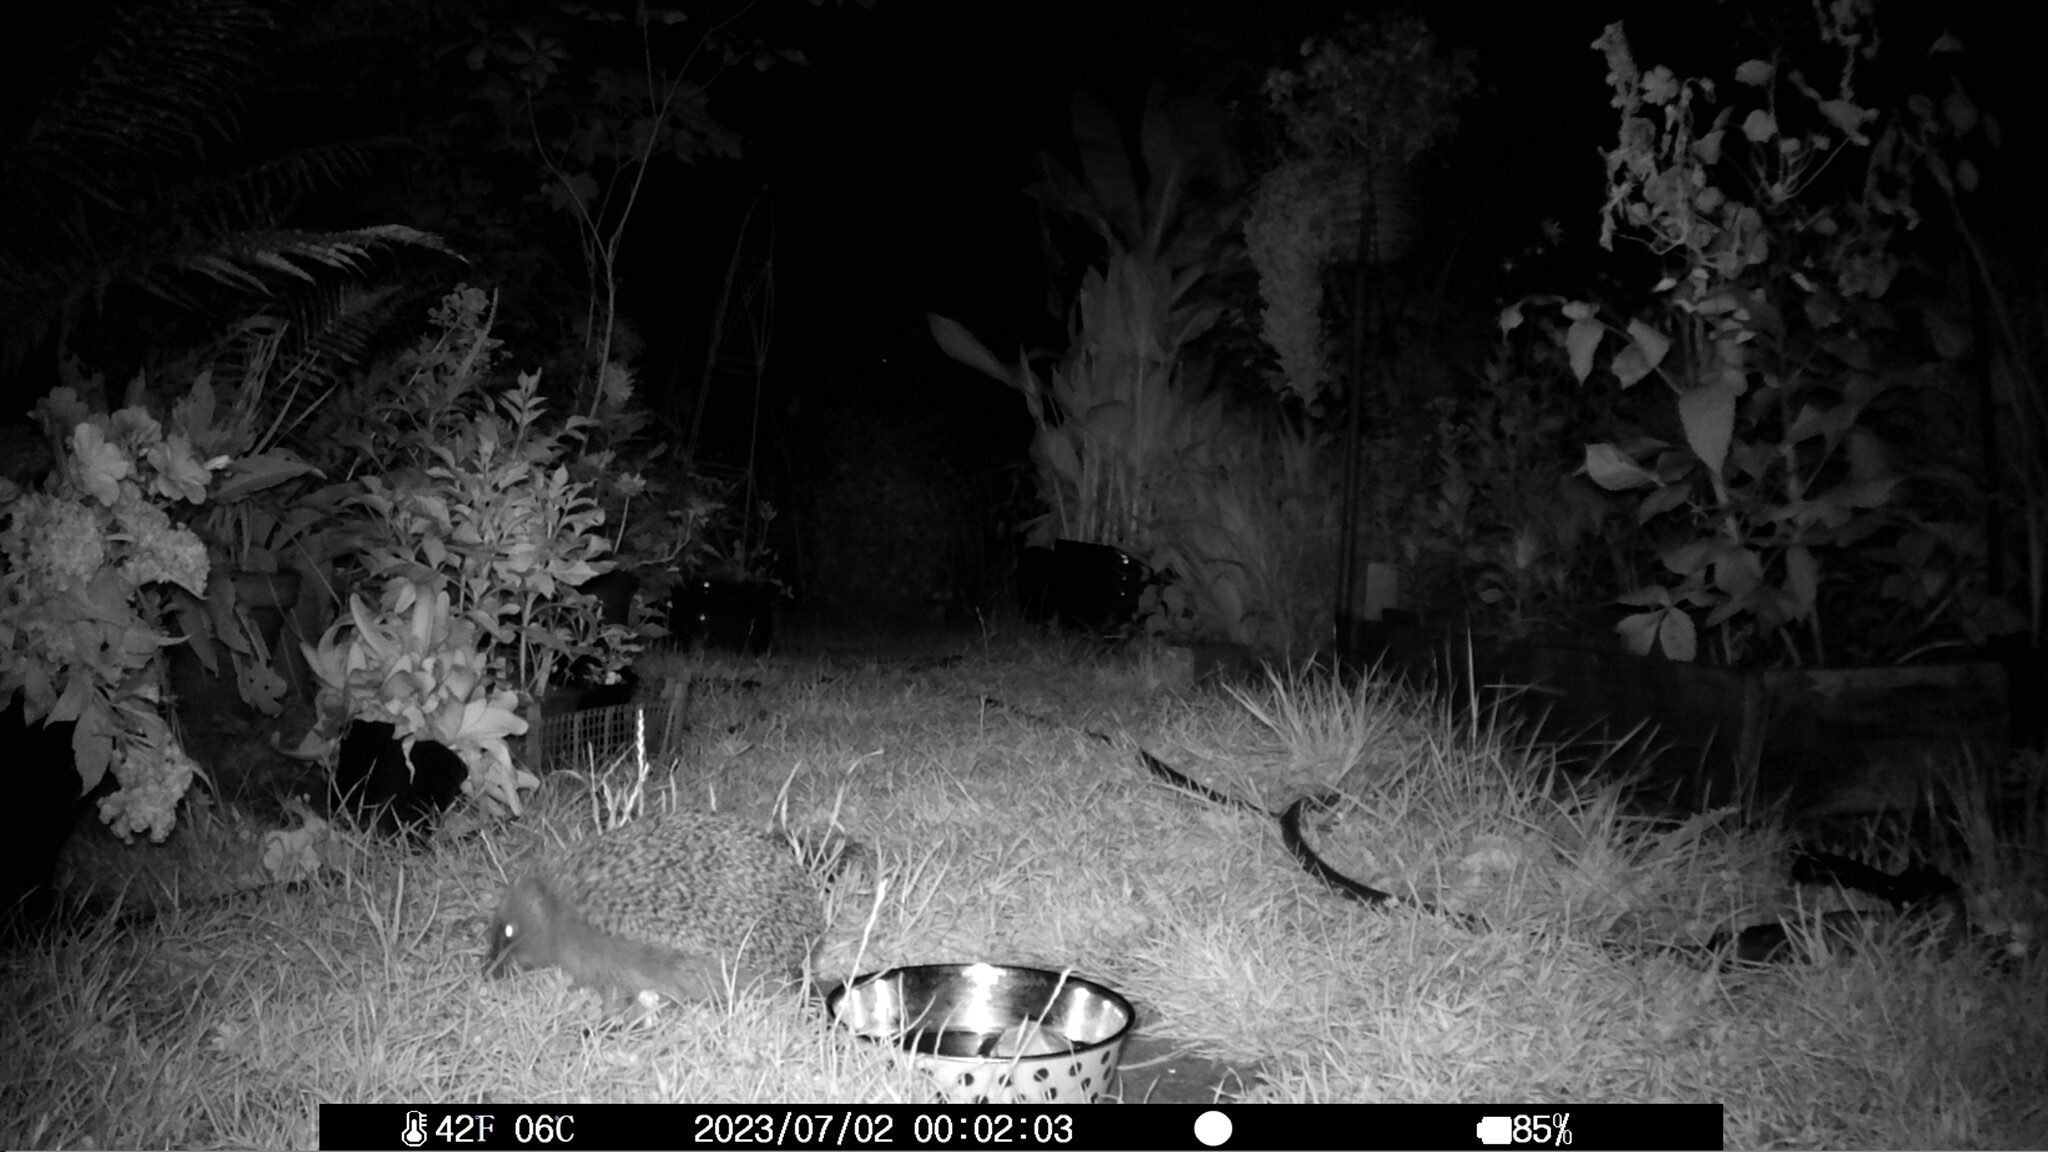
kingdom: Animalia
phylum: Chordata
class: Mammalia
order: Erinaceomorpha
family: Erinaceidae
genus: Erinaceus
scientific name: Erinaceus europaeus
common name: West european hedgehog
